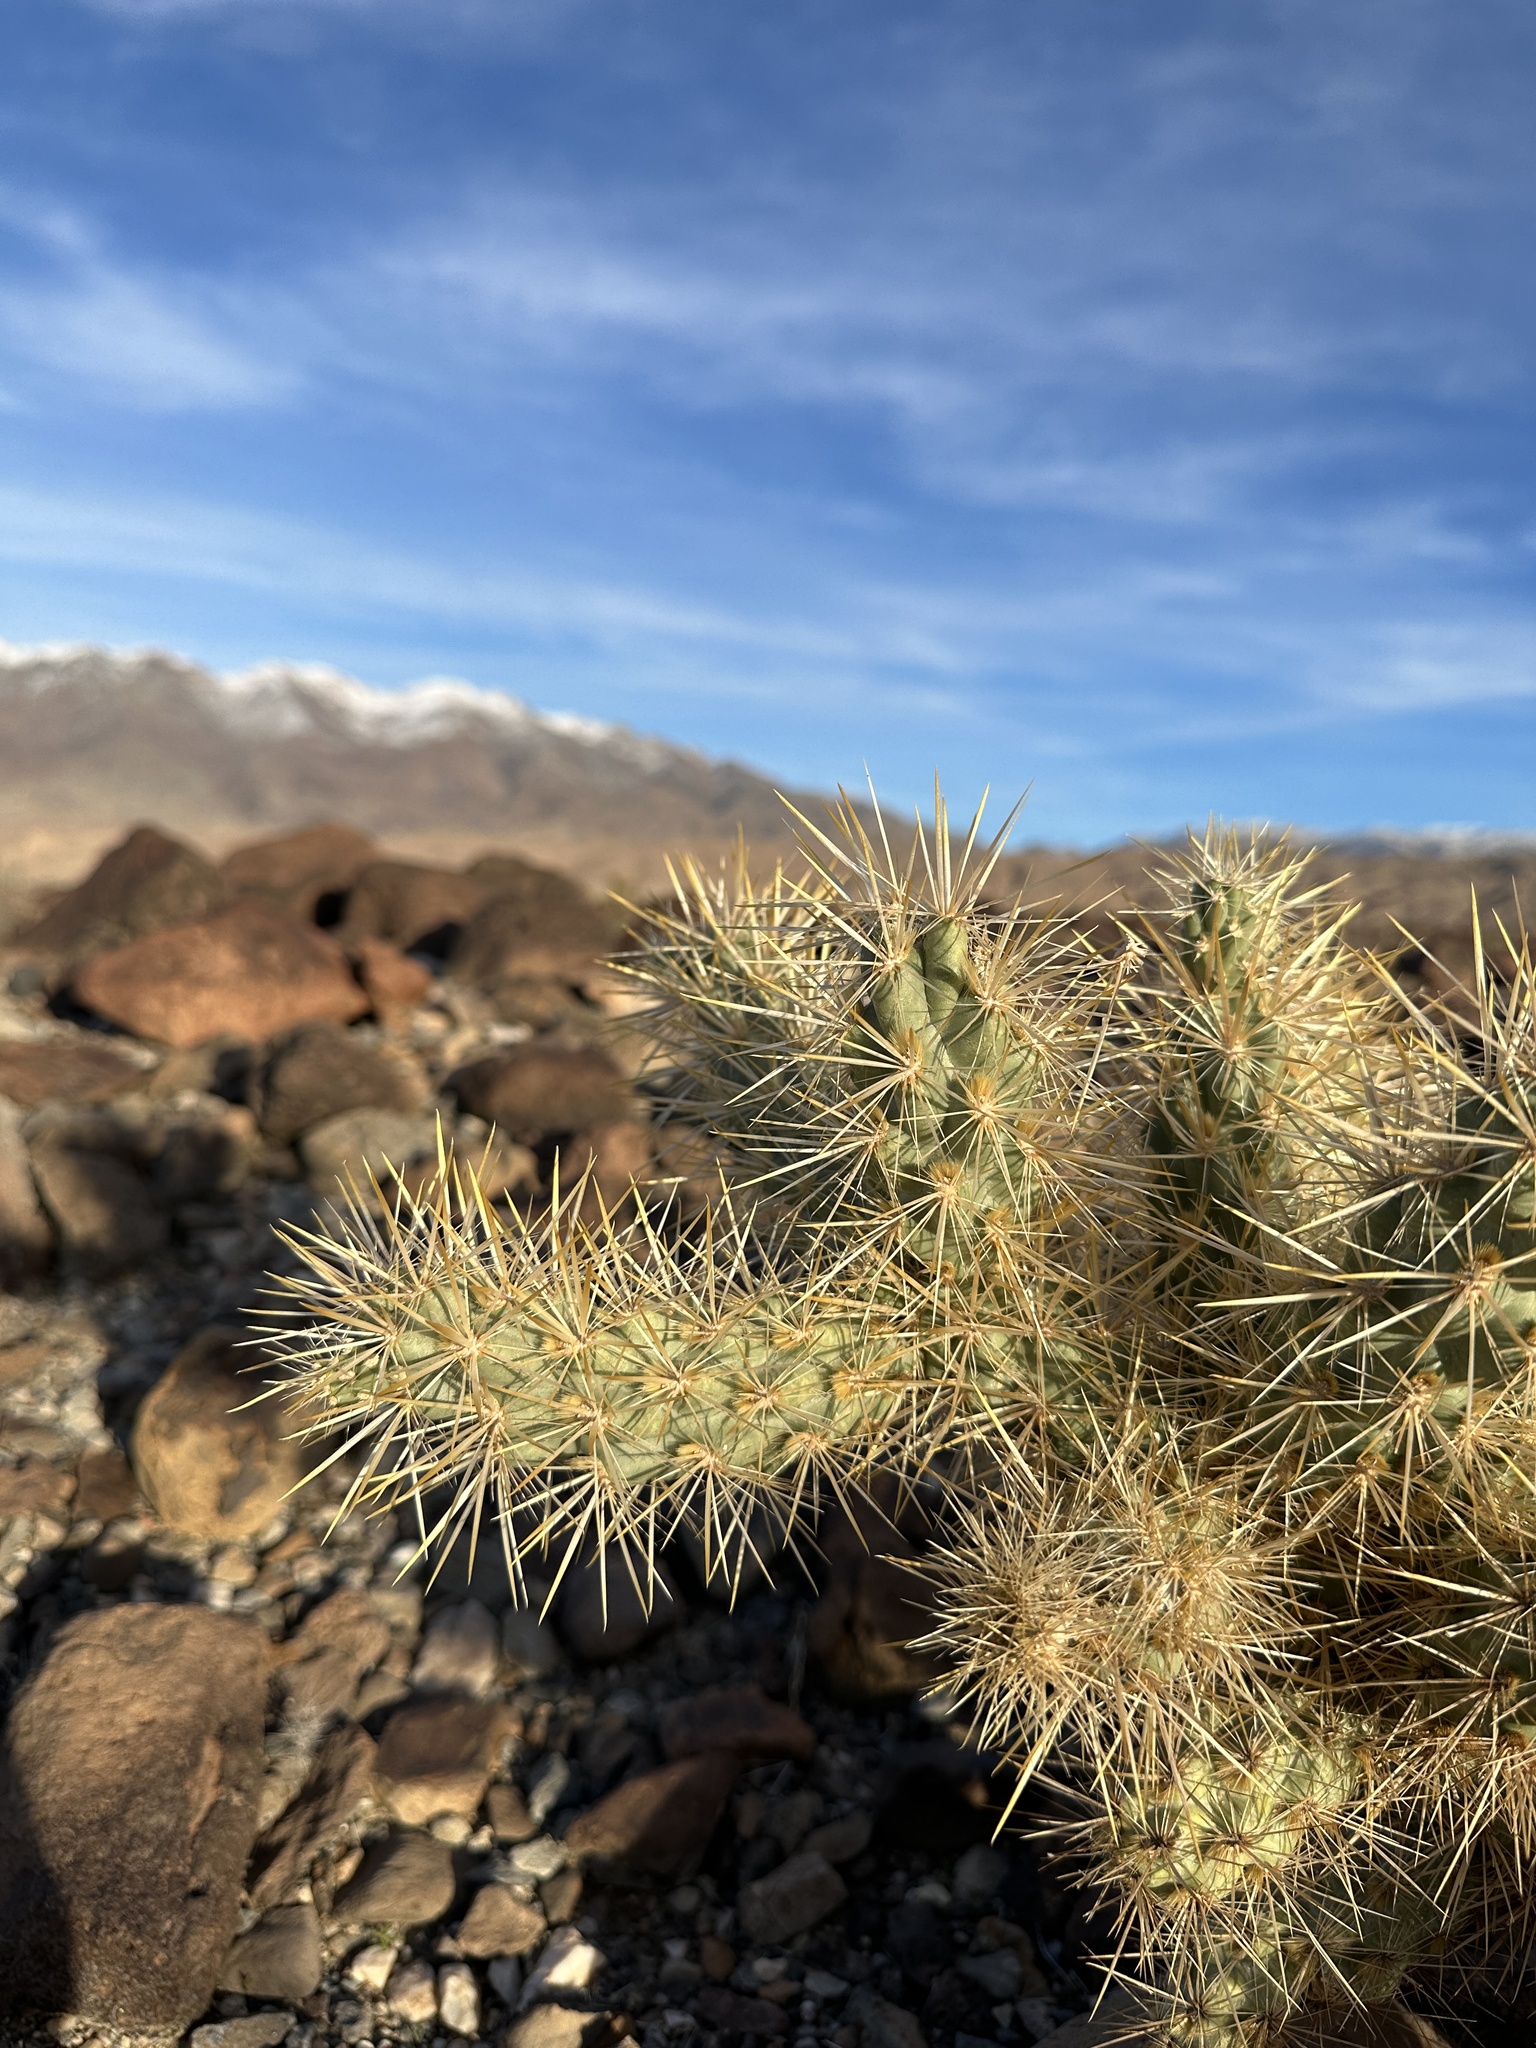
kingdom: Plantae
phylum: Tracheophyta
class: Magnoliopsida
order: Caryophyllales
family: Cactaceae
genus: Cylindropuntia
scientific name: Cylindropuntia echinocarpa
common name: Ground cholla
